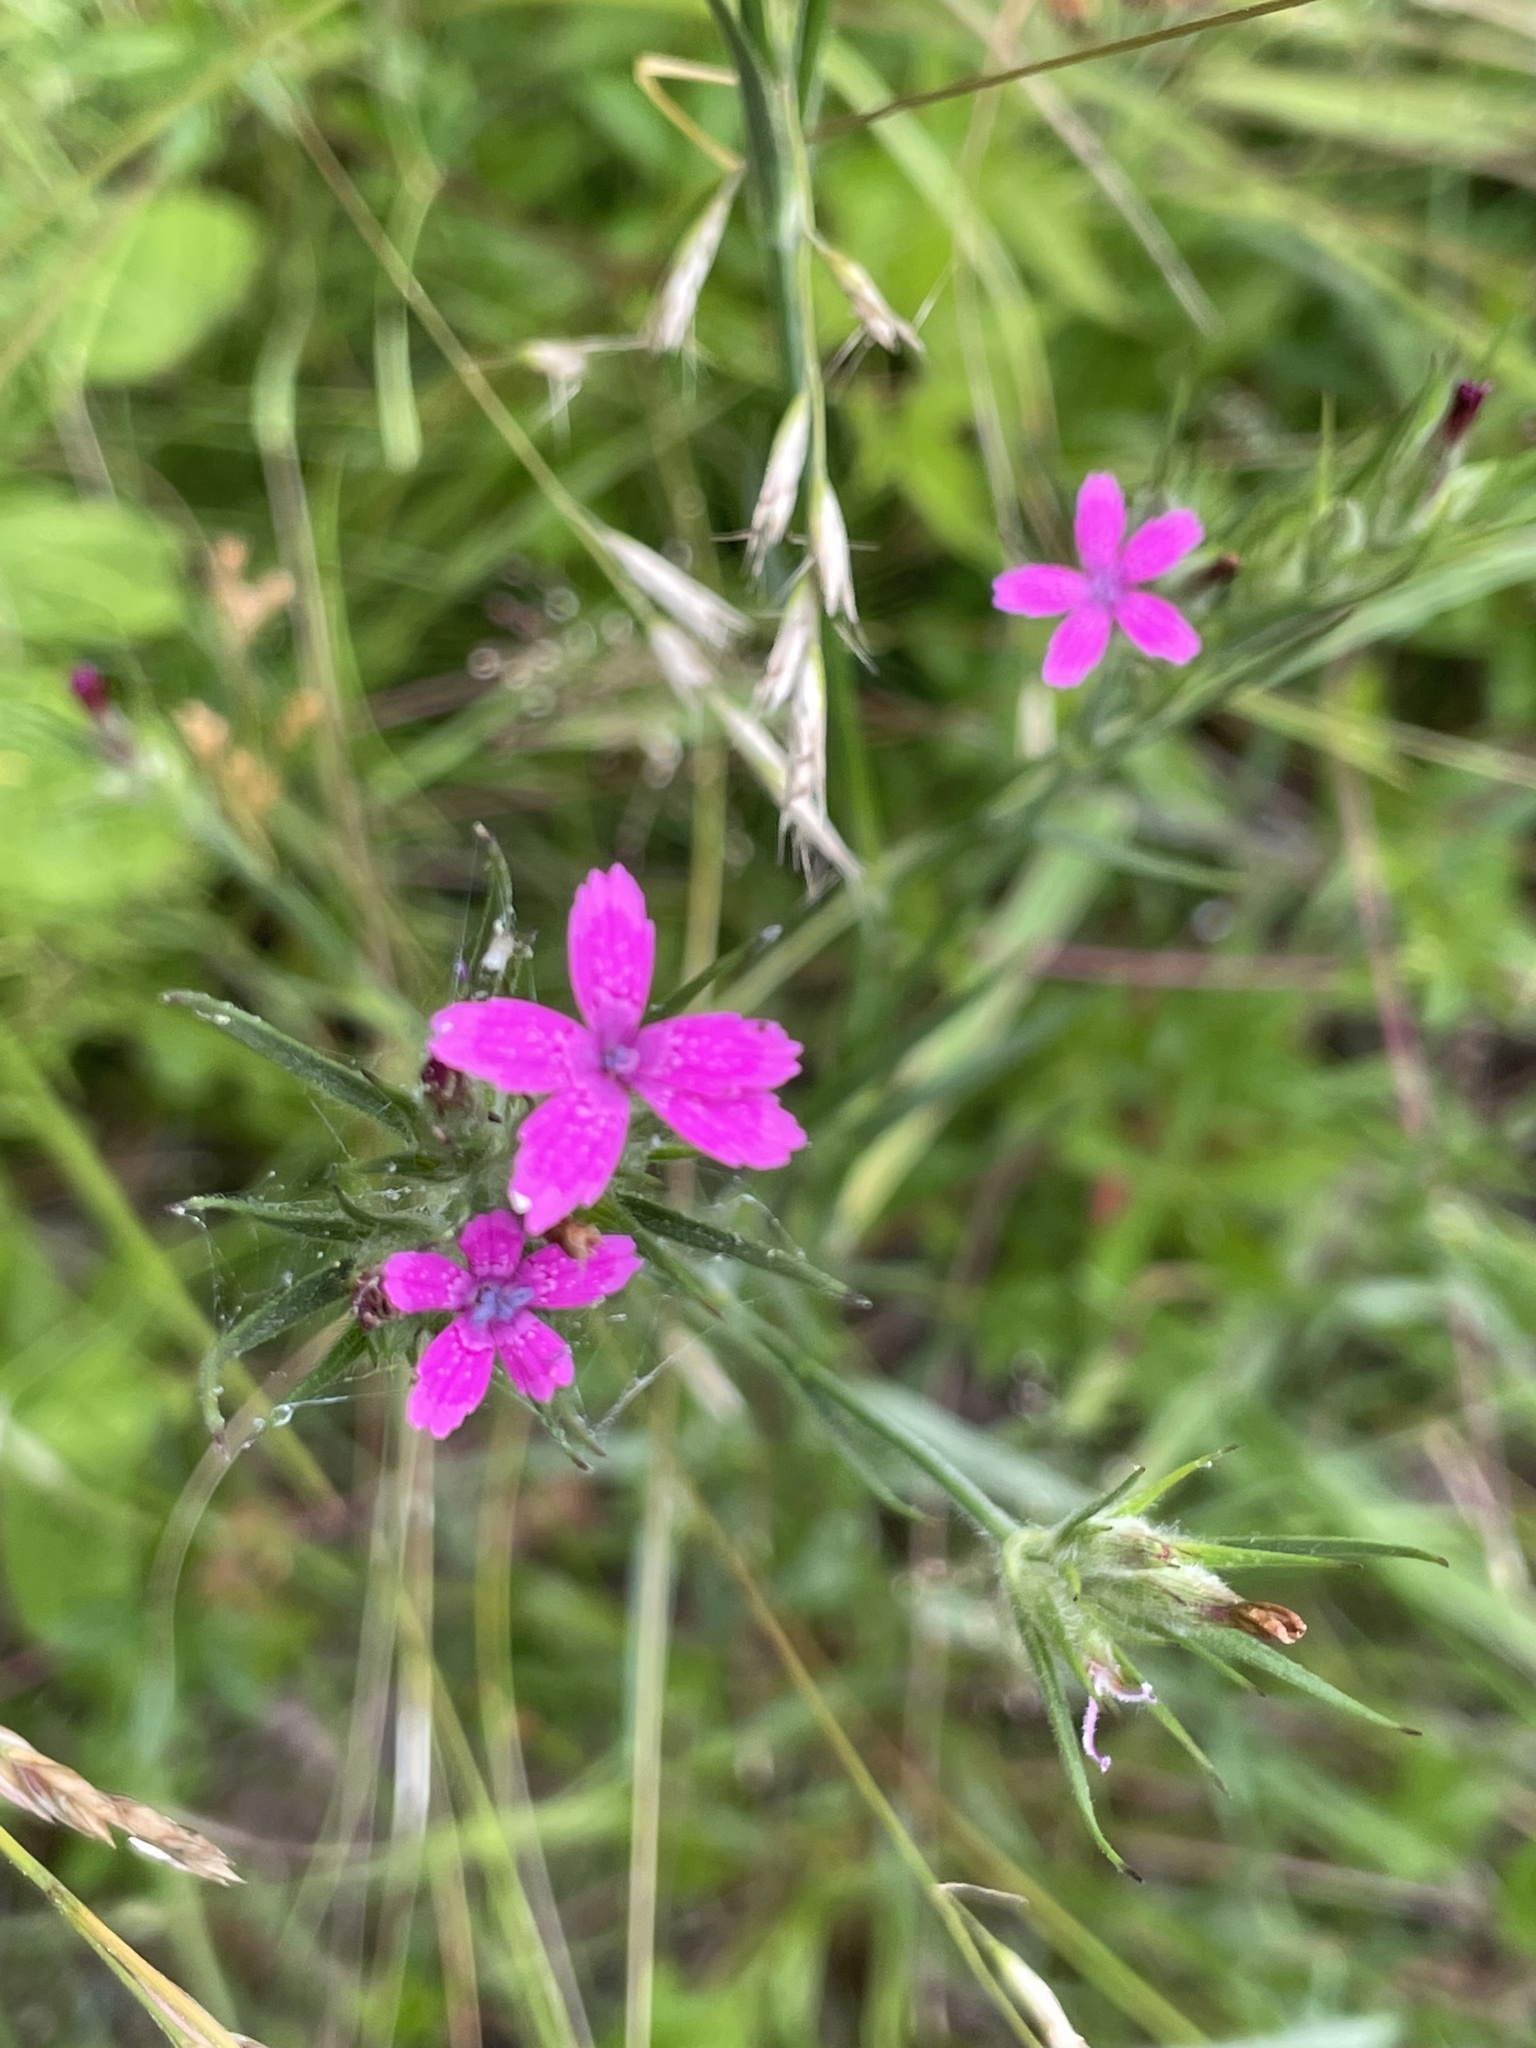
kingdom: Plantae
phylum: Tracheophyta
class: Magnoliopsida
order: Caryophyllales
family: Caryophyllaceae
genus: Dianthus
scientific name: Dianthus armeria
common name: Deptford pink
